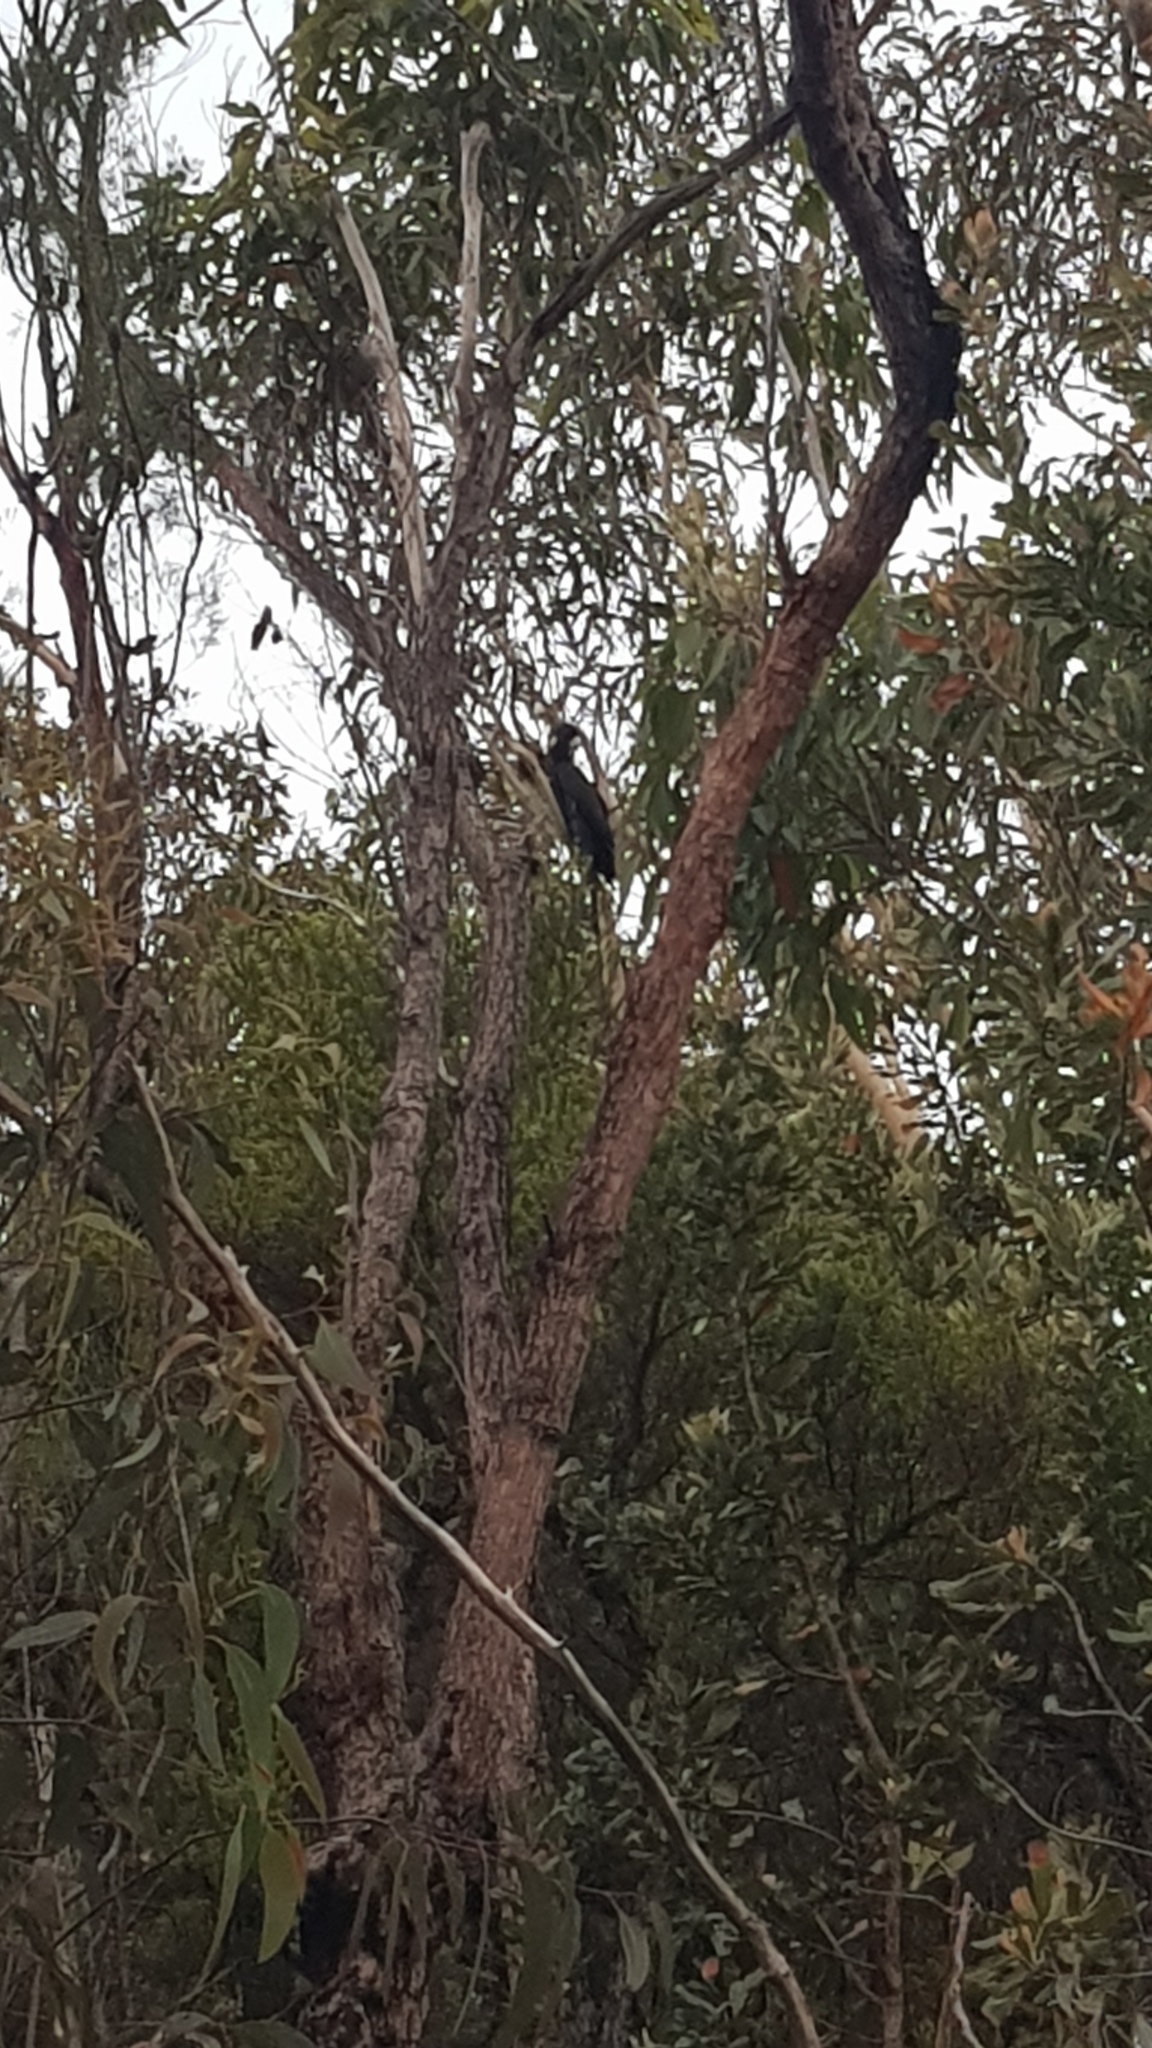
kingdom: Animalia
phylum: Chordata
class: Aves
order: Psittaciformes
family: Cacatuidae
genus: Zanda
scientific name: Zanda funerea
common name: Yellow-tailed black-cockatoo
